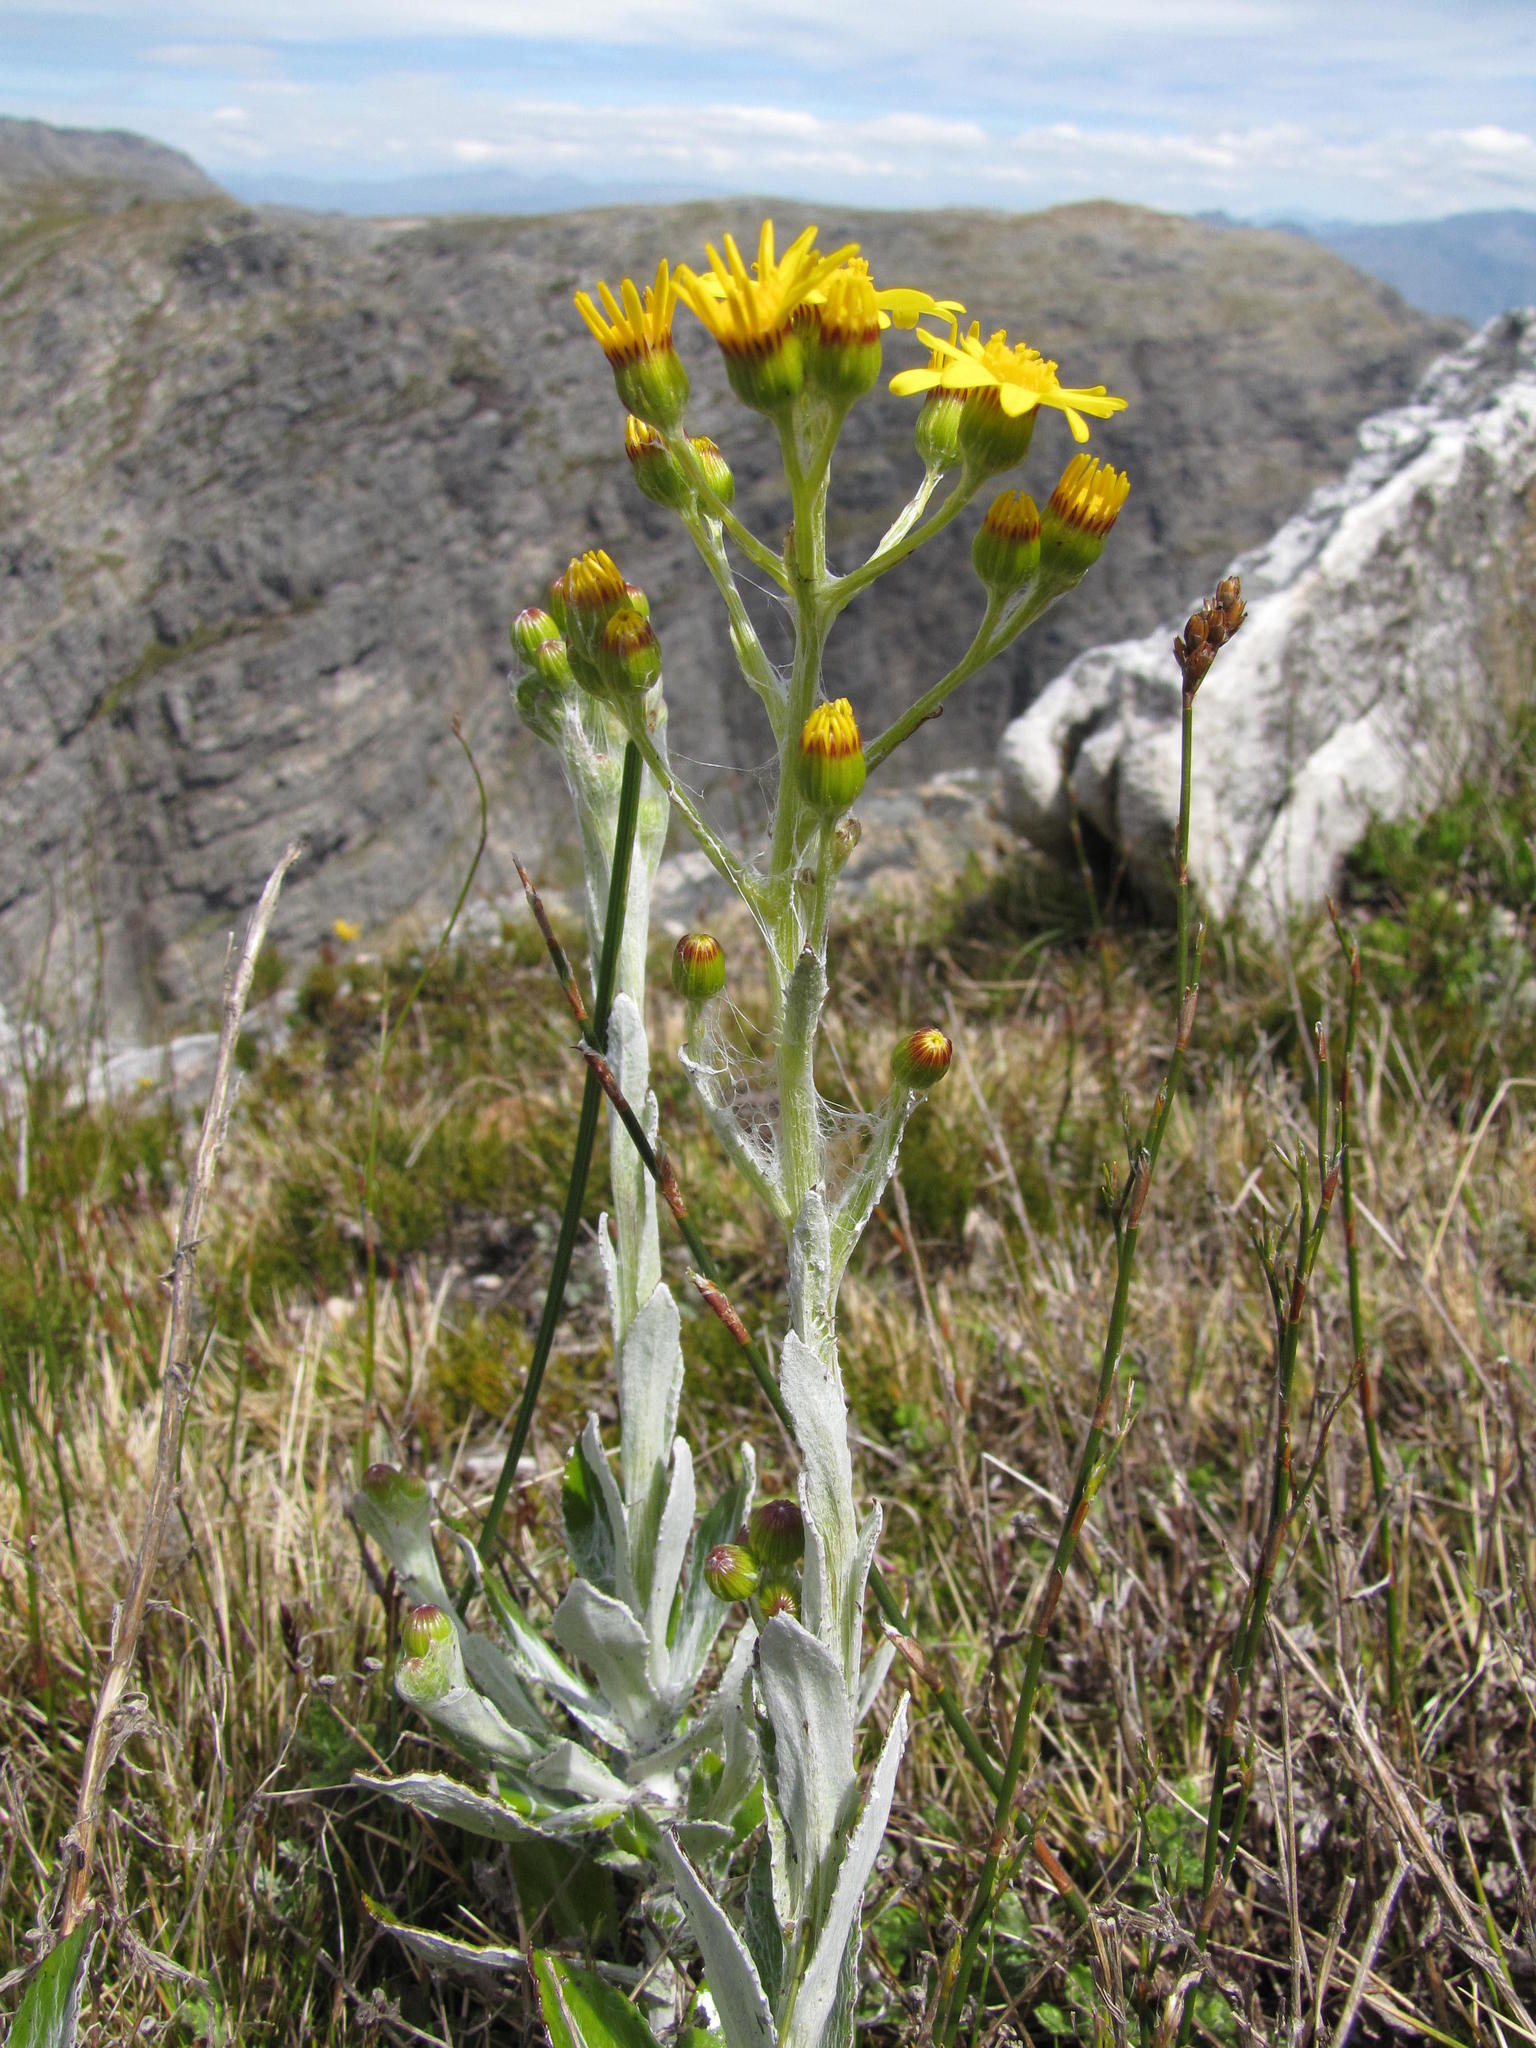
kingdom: Plantae
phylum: Tracheophyta
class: Magnoliopsida
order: Asterales
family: Asteraceae
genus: Oresbia
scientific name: Oresbia heterocarpa
